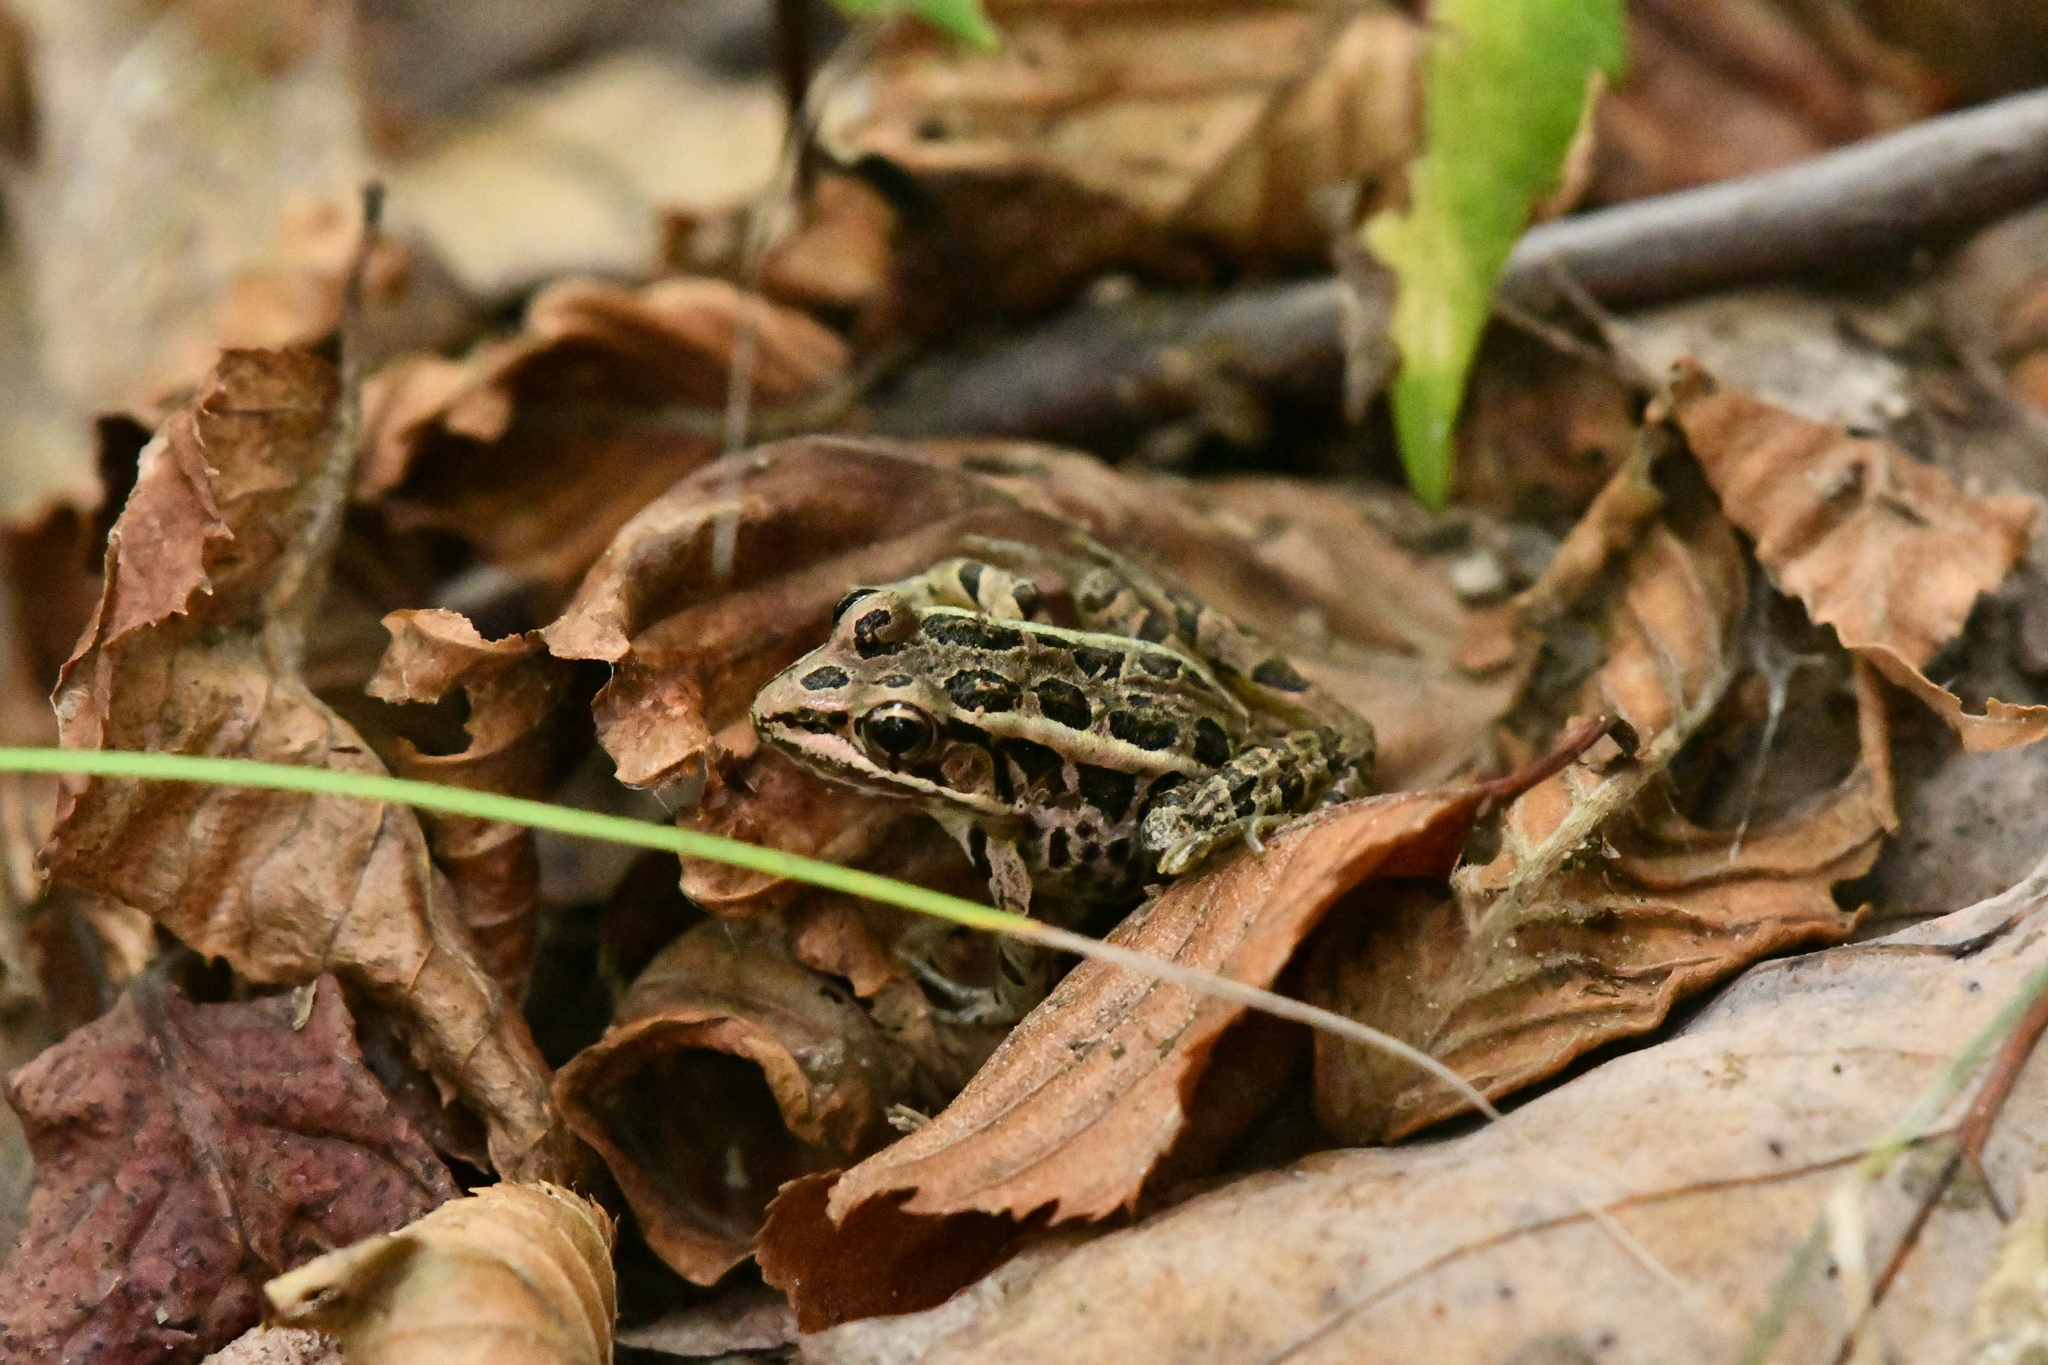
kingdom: Animalia
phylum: Chordata
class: Amphibia
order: Anura
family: Ranidae
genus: Lithobates
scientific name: Lithobates palustris
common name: Pickerel frog
